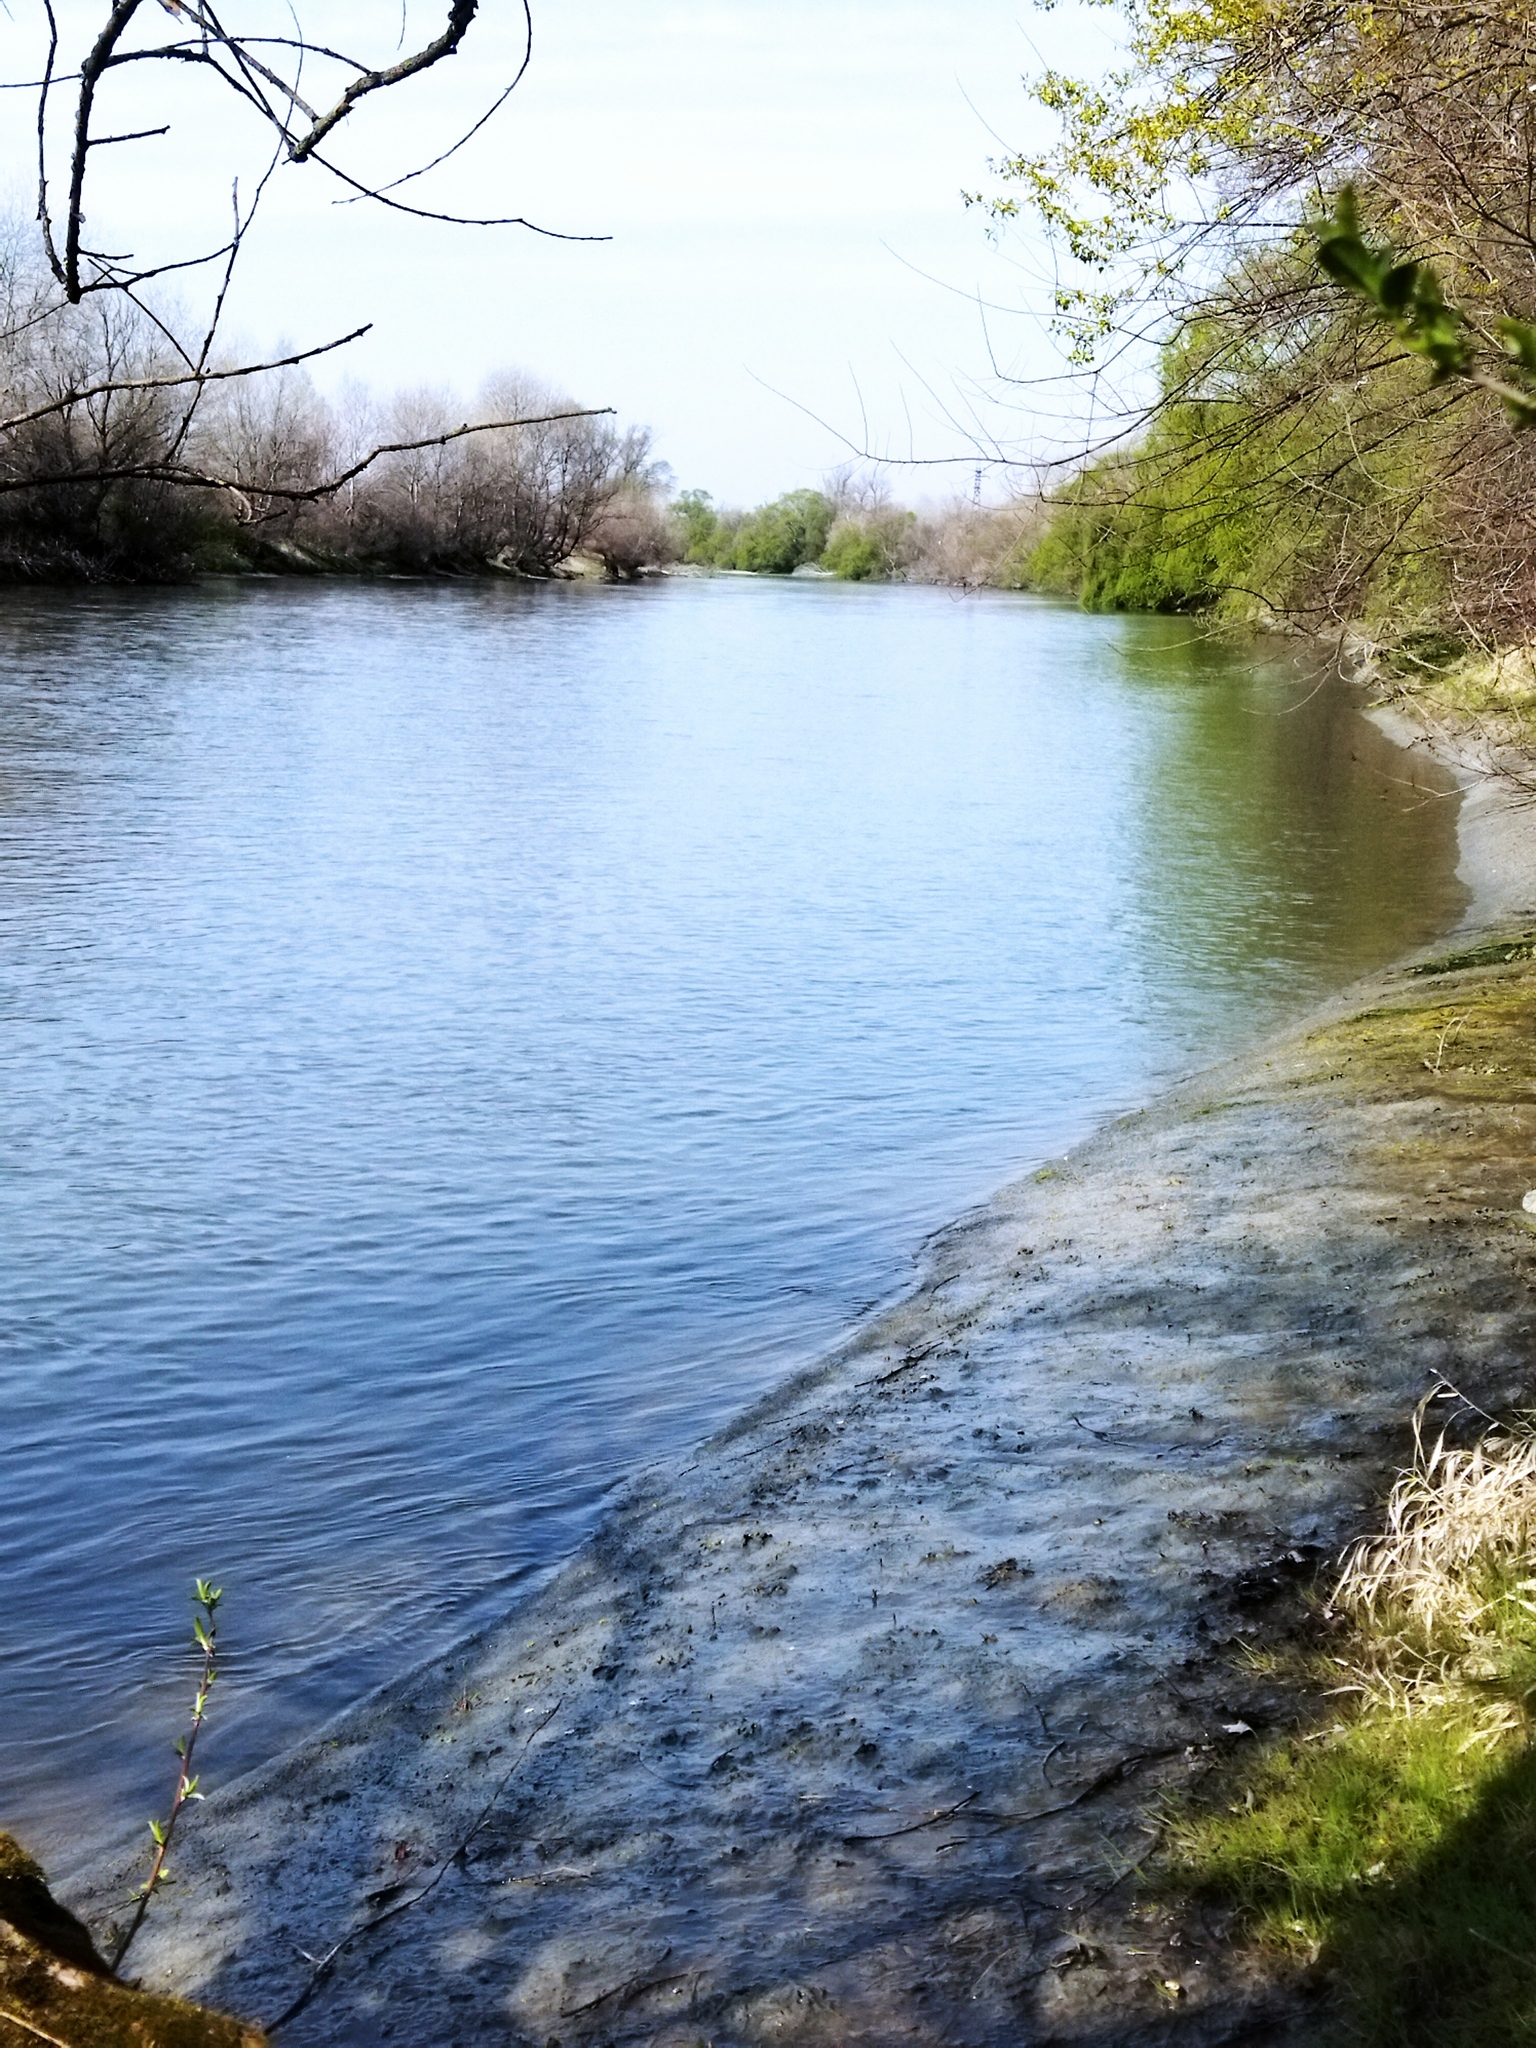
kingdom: Animalia
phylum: Chordata
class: Mammalia
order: Rodentia
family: Myocastoridae
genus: Myocastor
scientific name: Myocastor coypus
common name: Coypu
